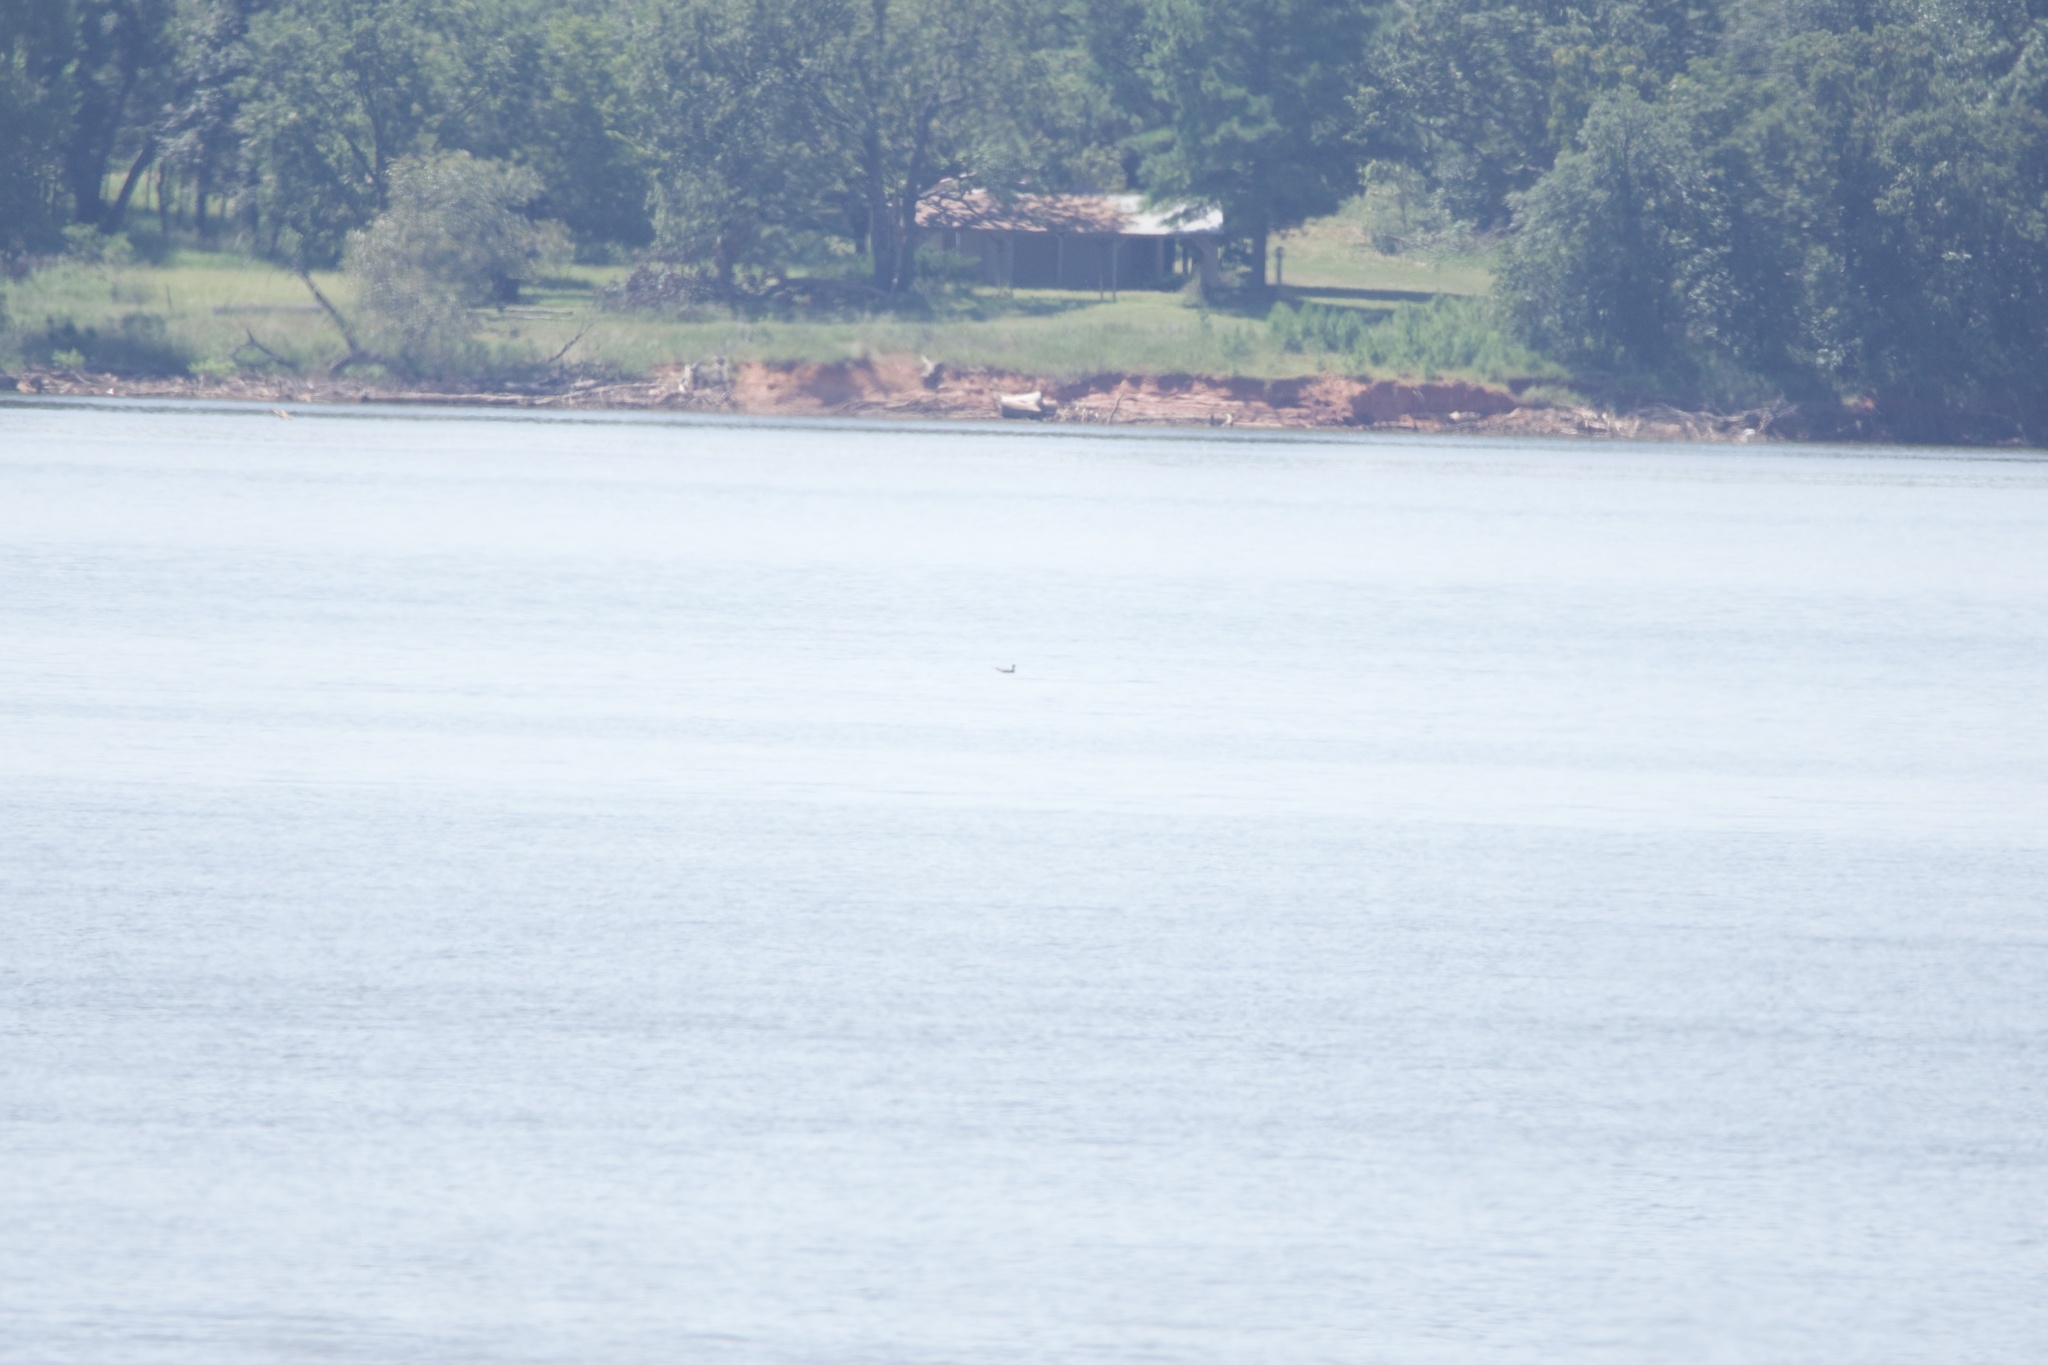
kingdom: Animalia
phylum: Chordata
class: Aves
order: Charadriiformes
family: Stercorariidae
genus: Stercorarius
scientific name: Stercorarius longicaudus
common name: Long-tailed jaeger
